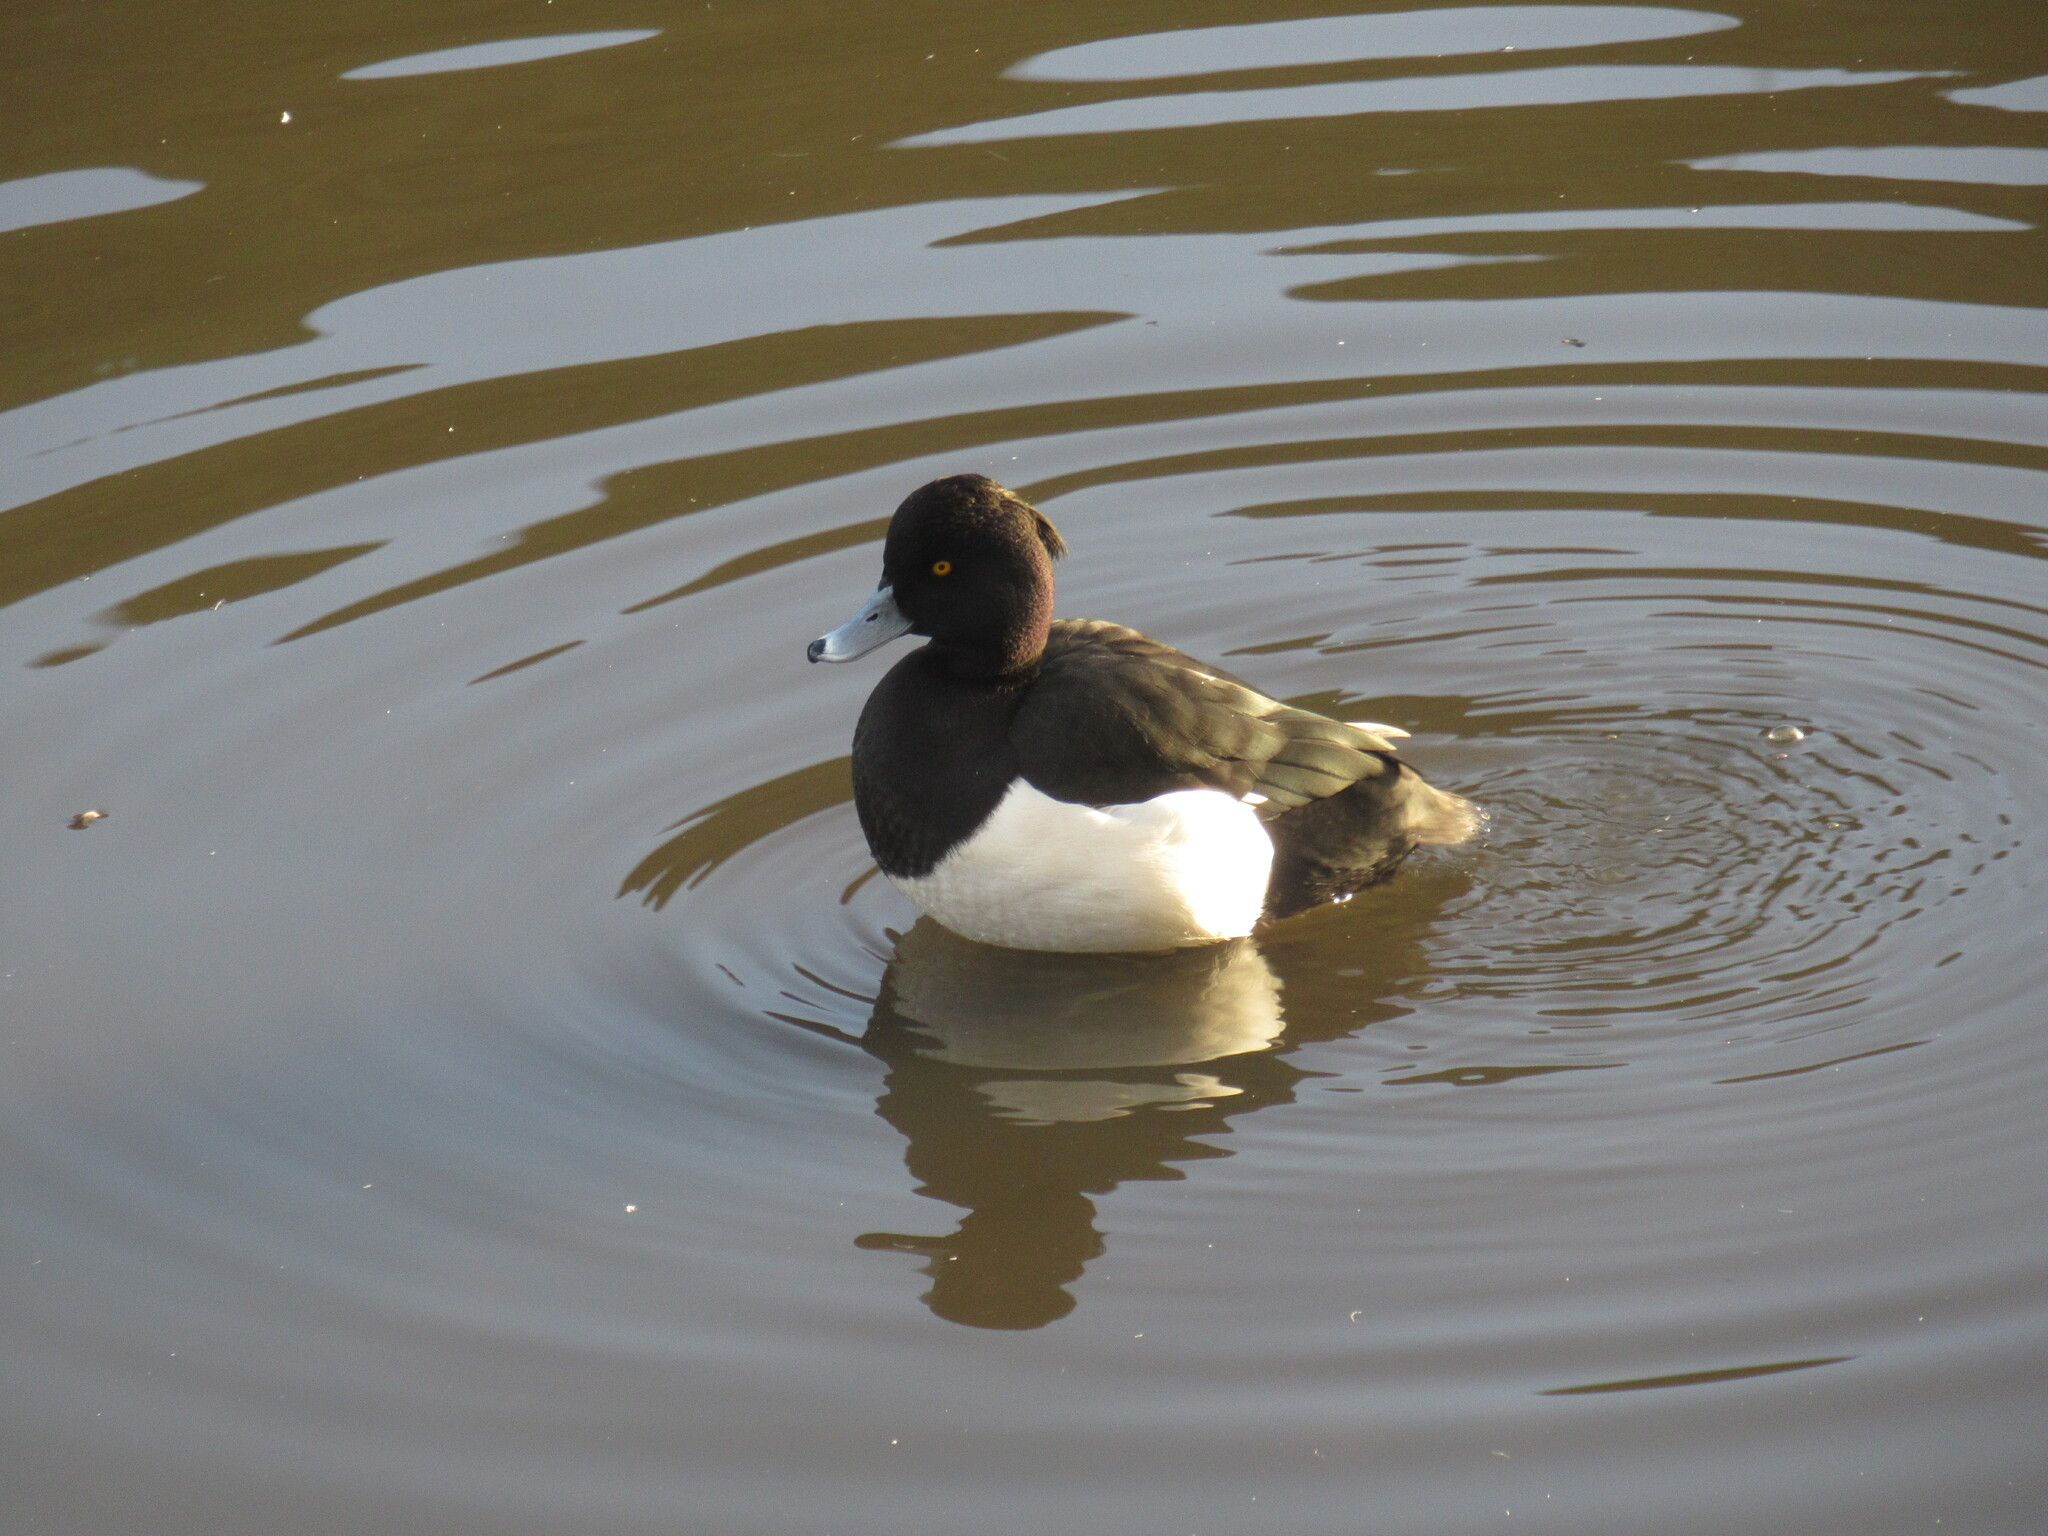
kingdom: Animalia
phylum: Chordata
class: Aves
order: Anseriformes
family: Anatidae
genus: Aythya
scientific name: Aythya fuligula
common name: Tufted duck
